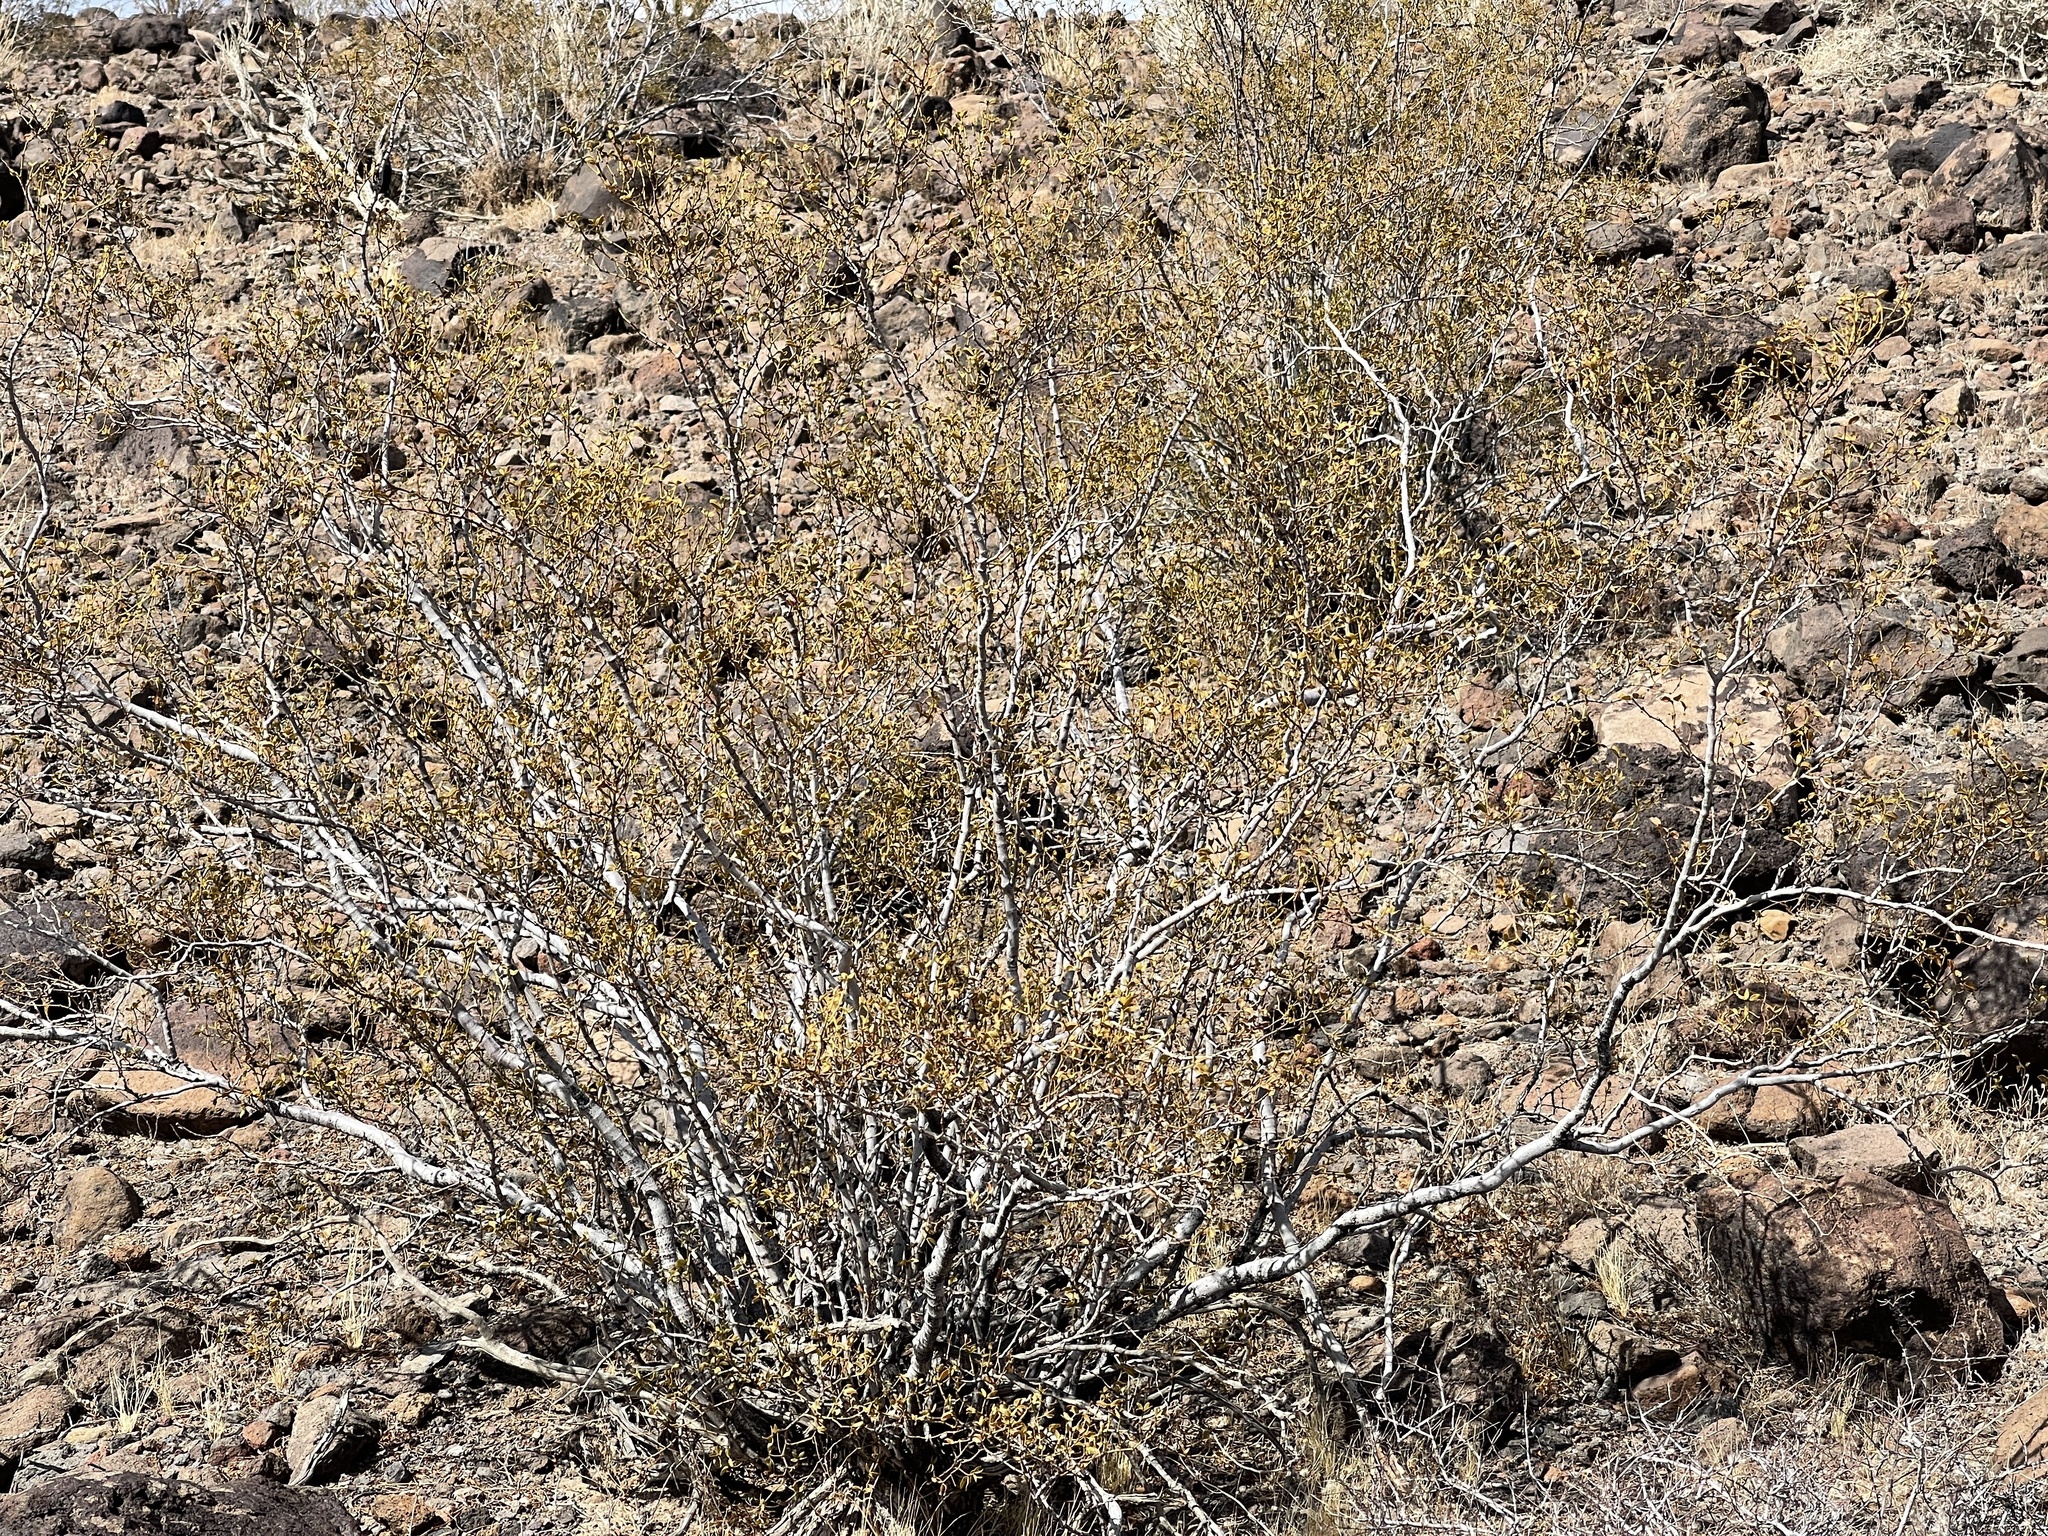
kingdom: Plantae
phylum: Tracheophyta
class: Magnoliopsida
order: Zygophyllales
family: Zygophyllaceae
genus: Larrea
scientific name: Larrea tridentata
